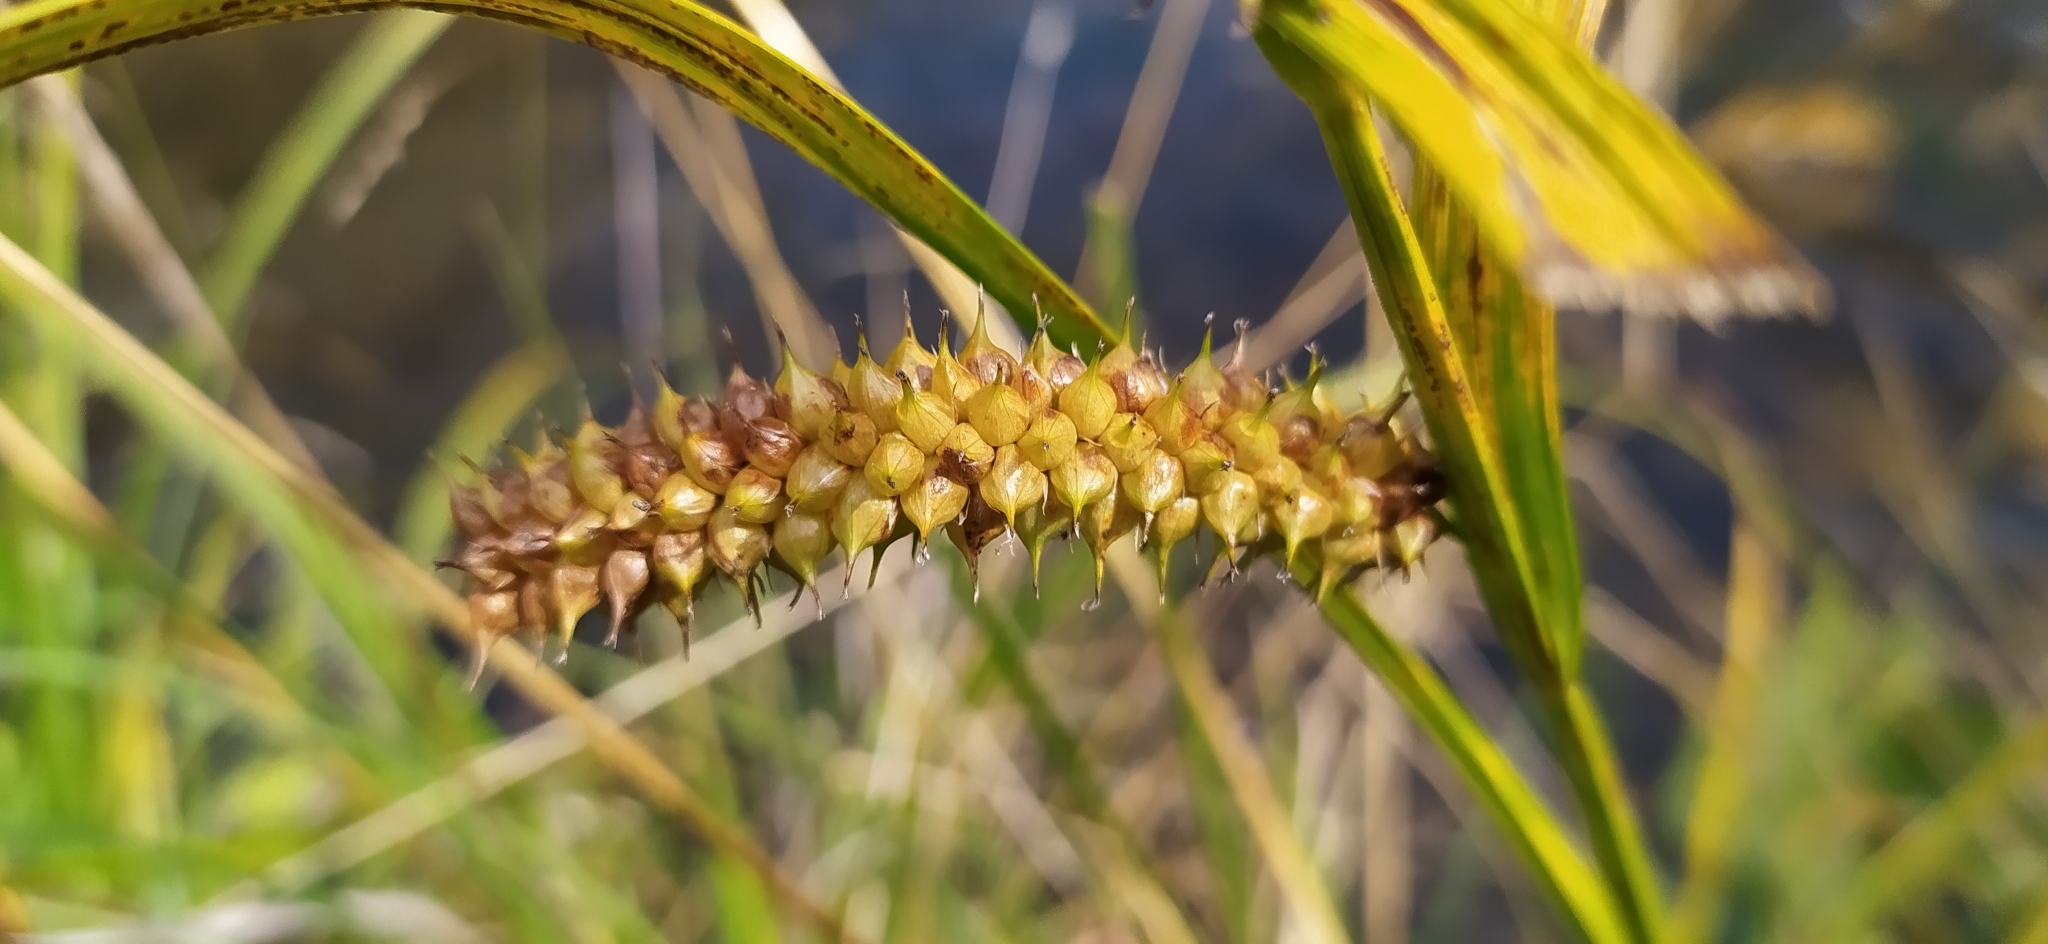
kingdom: Plantae
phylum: Tracheophyta
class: Liliopsida
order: Poales
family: Cyperaceae
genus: Carex
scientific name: Carex utriculata
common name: Beaked sedge
